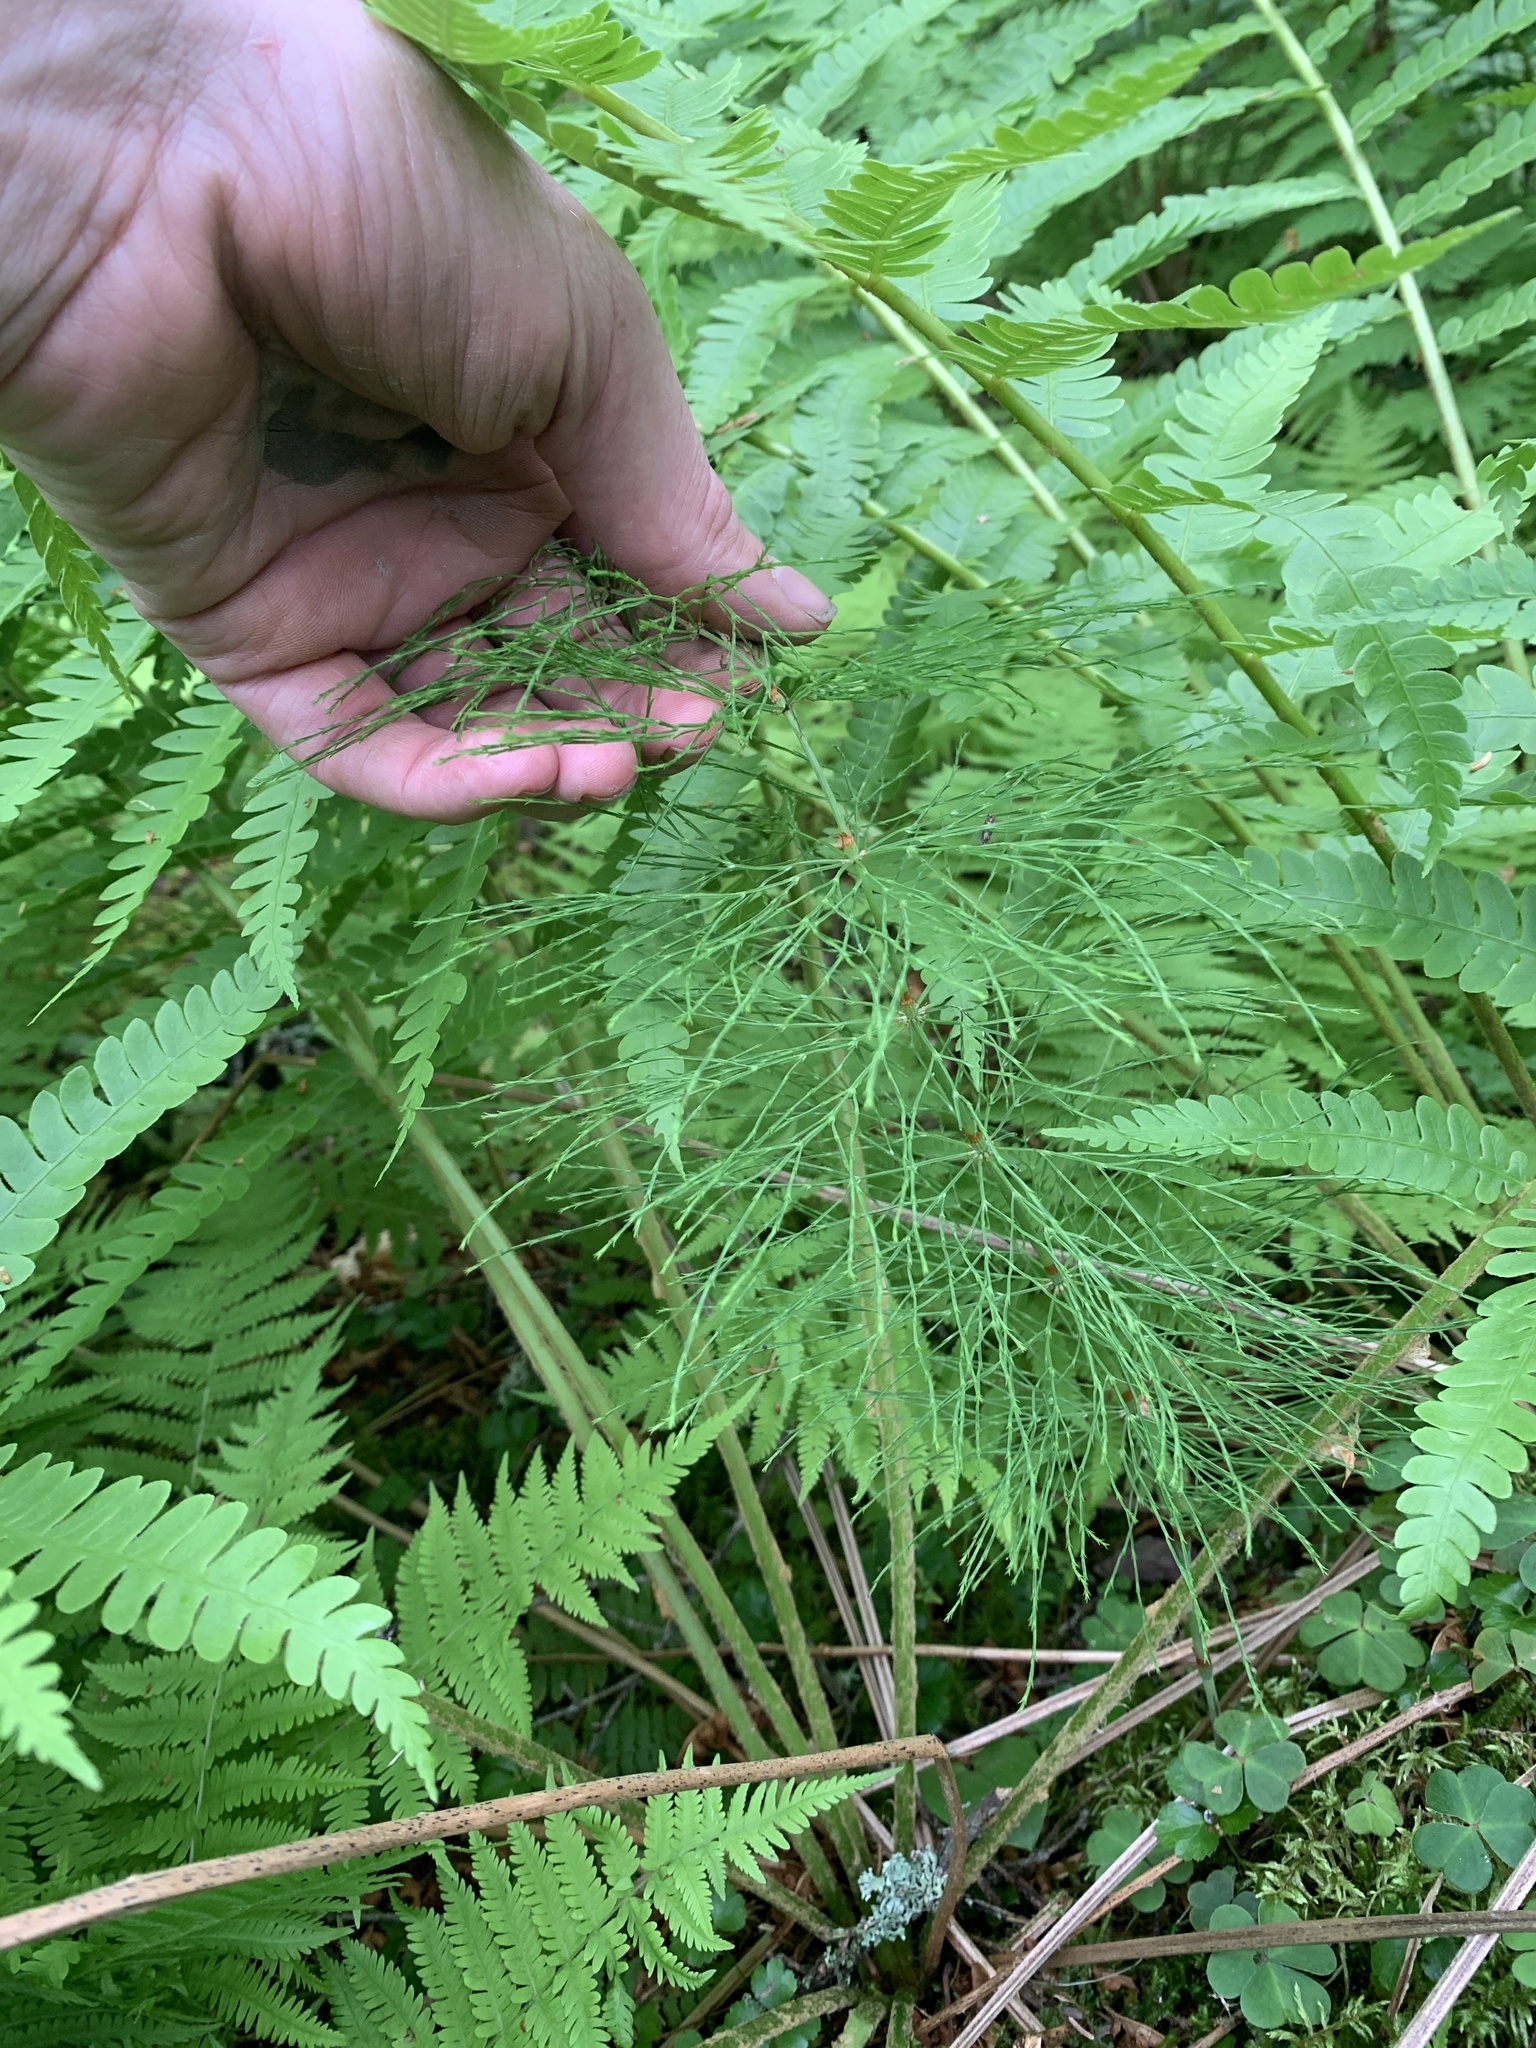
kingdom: Plantae
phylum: Tracheophyta
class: Polypodiopsida
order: Equisetales
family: Equisetaceae
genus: Equisetum
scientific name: Equisetum sylvaticum
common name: Wood horsetail
